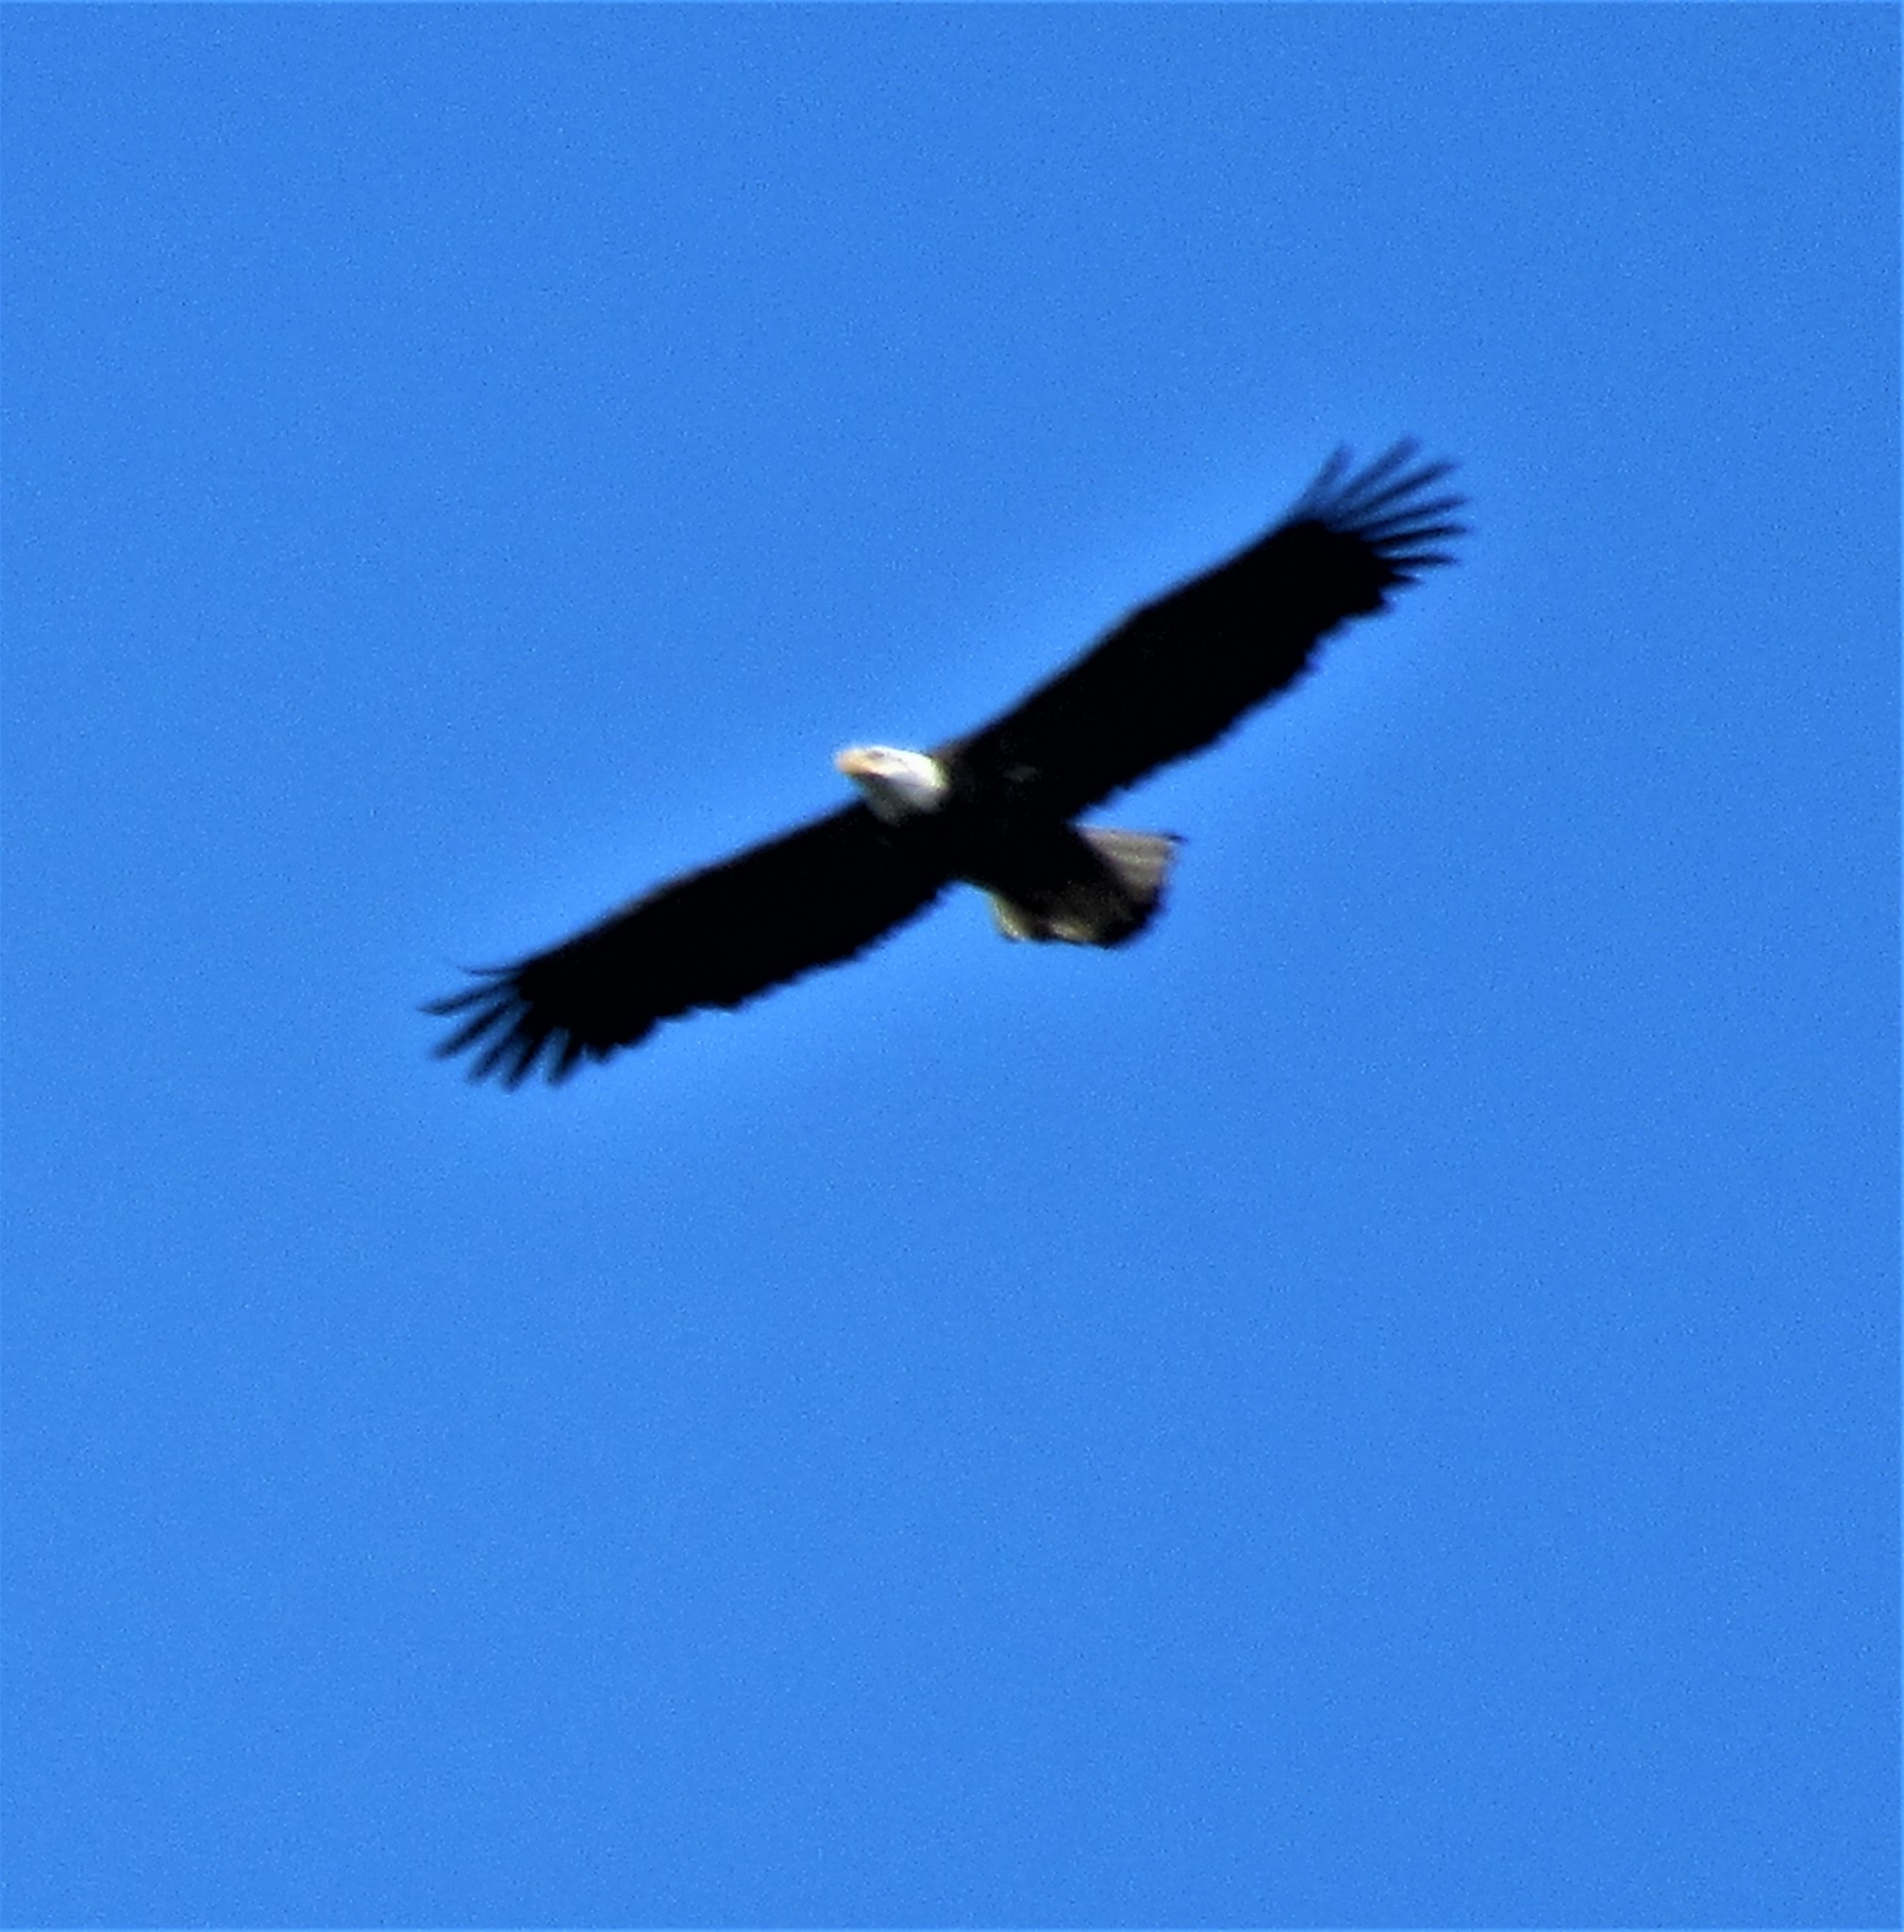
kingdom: Animalia
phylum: Chordata
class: Aves
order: Accipitriformes
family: Accipitridae
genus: Haliaeetus
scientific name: Haliaeetus leucocephalus
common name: Bald eagle
